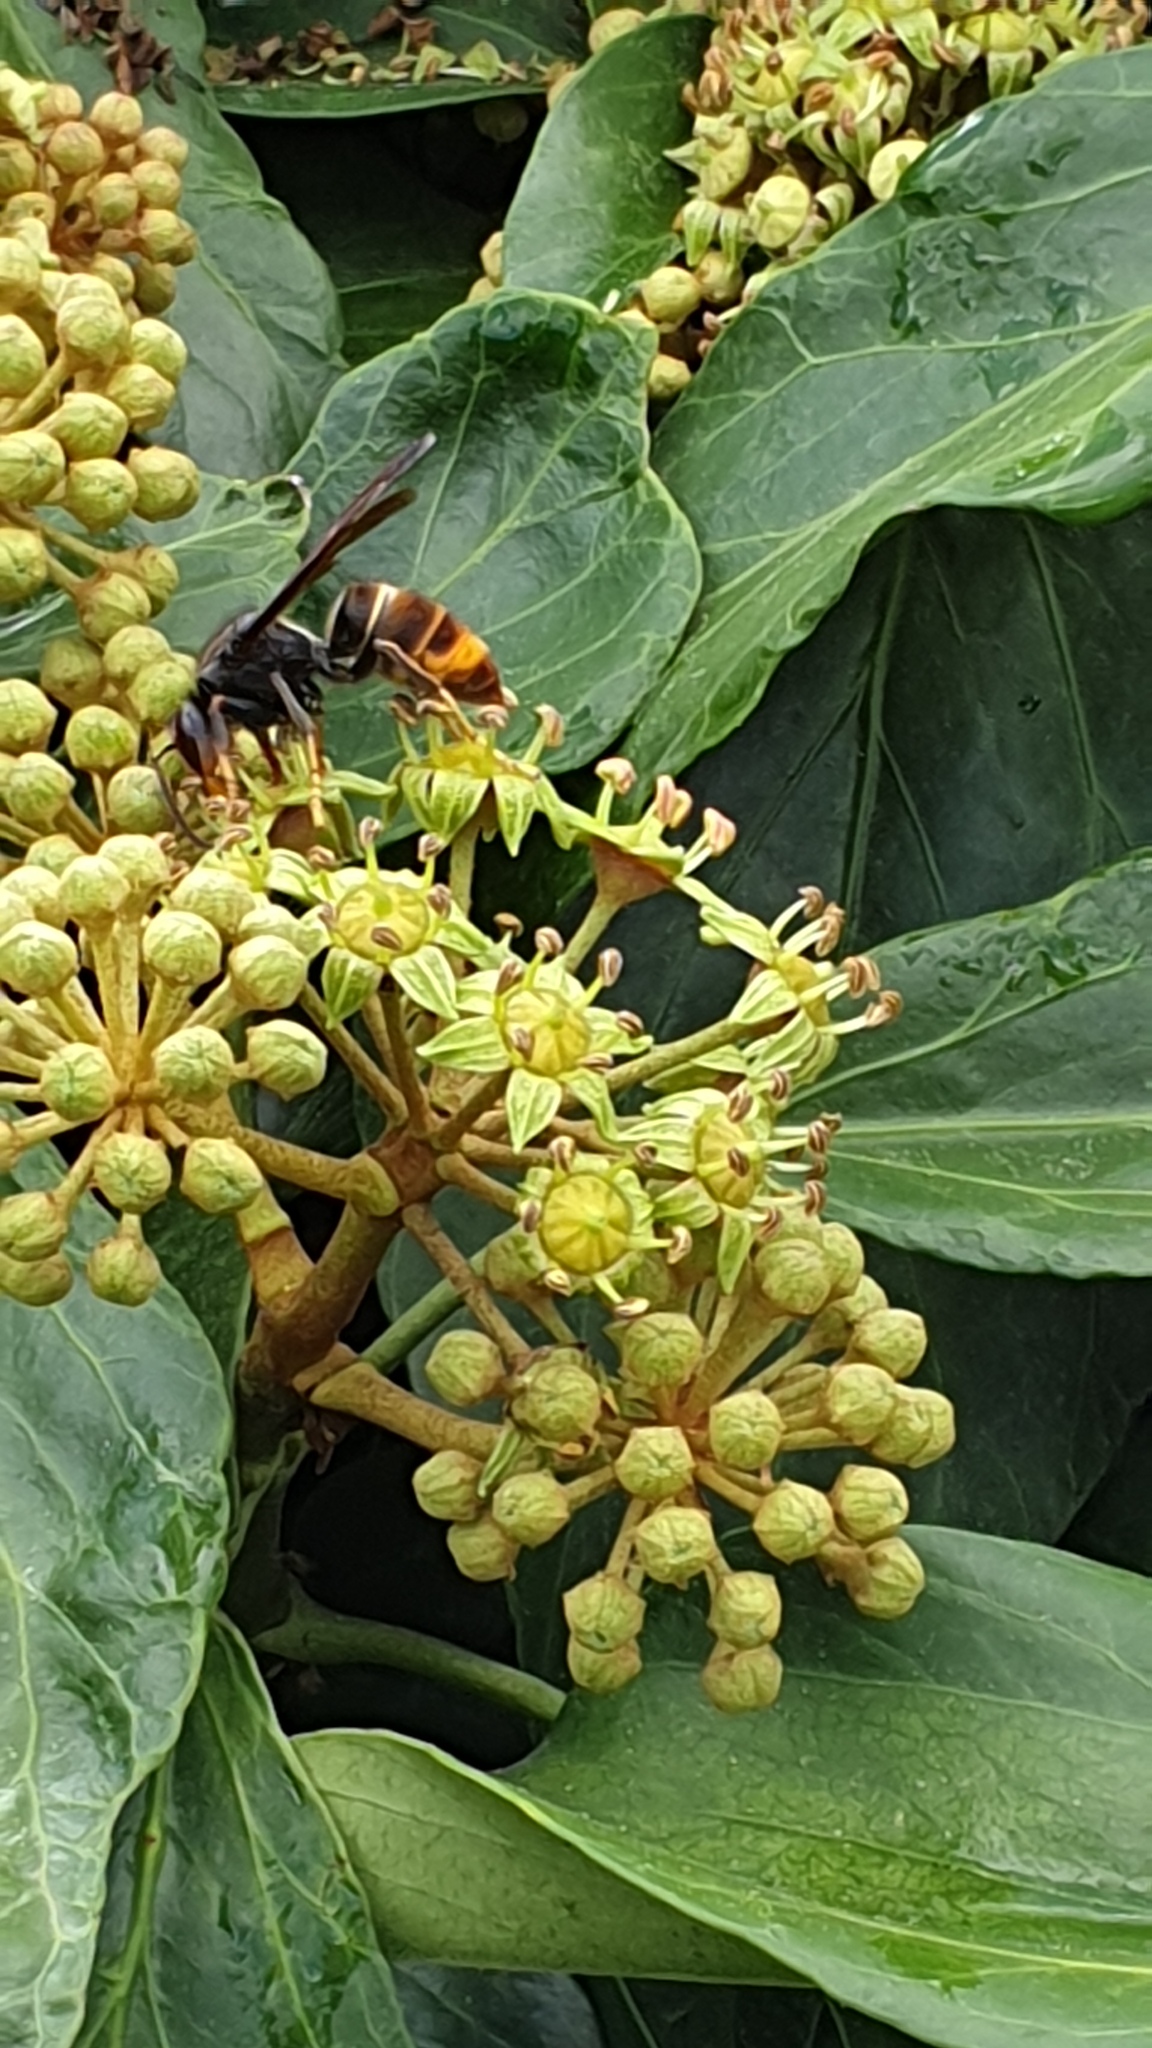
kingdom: Animalia
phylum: Arthropoda
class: Insecta
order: Hymenoptera
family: Vespidae
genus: Vespa
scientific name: Vespa velutina
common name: Asian hornet
